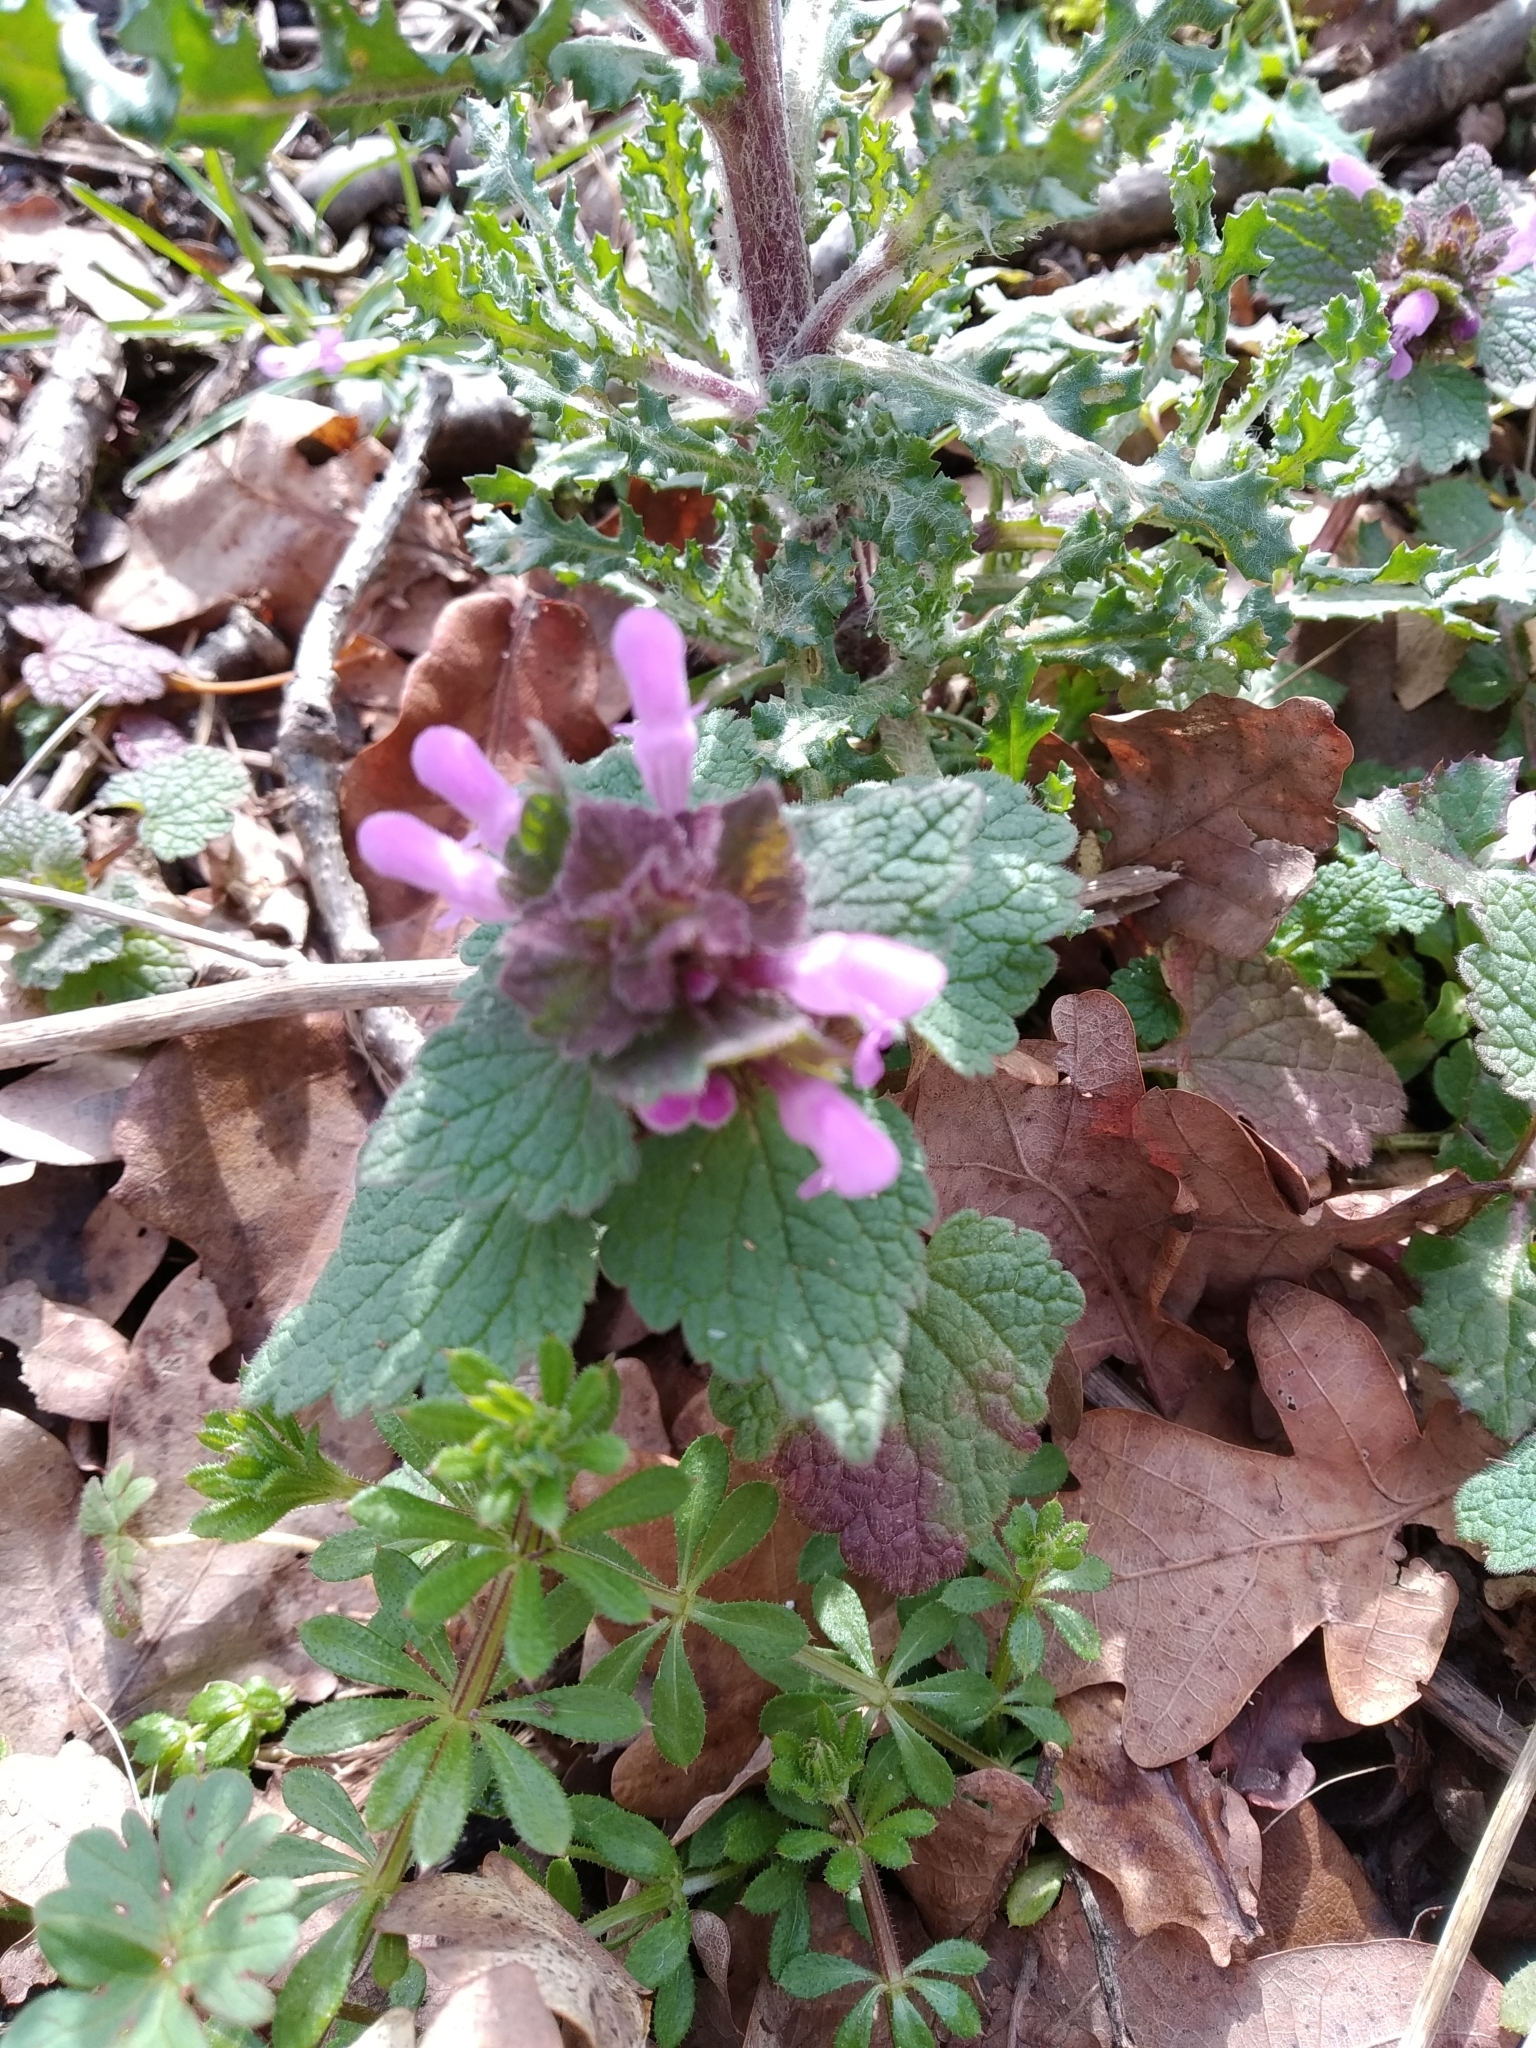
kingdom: Plantae
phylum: Tracheophyta
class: Magnoliopsida
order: Lamiales
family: Lamiaceae
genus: Lamium
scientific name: Lamium purpureum
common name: Red dead-nettle
